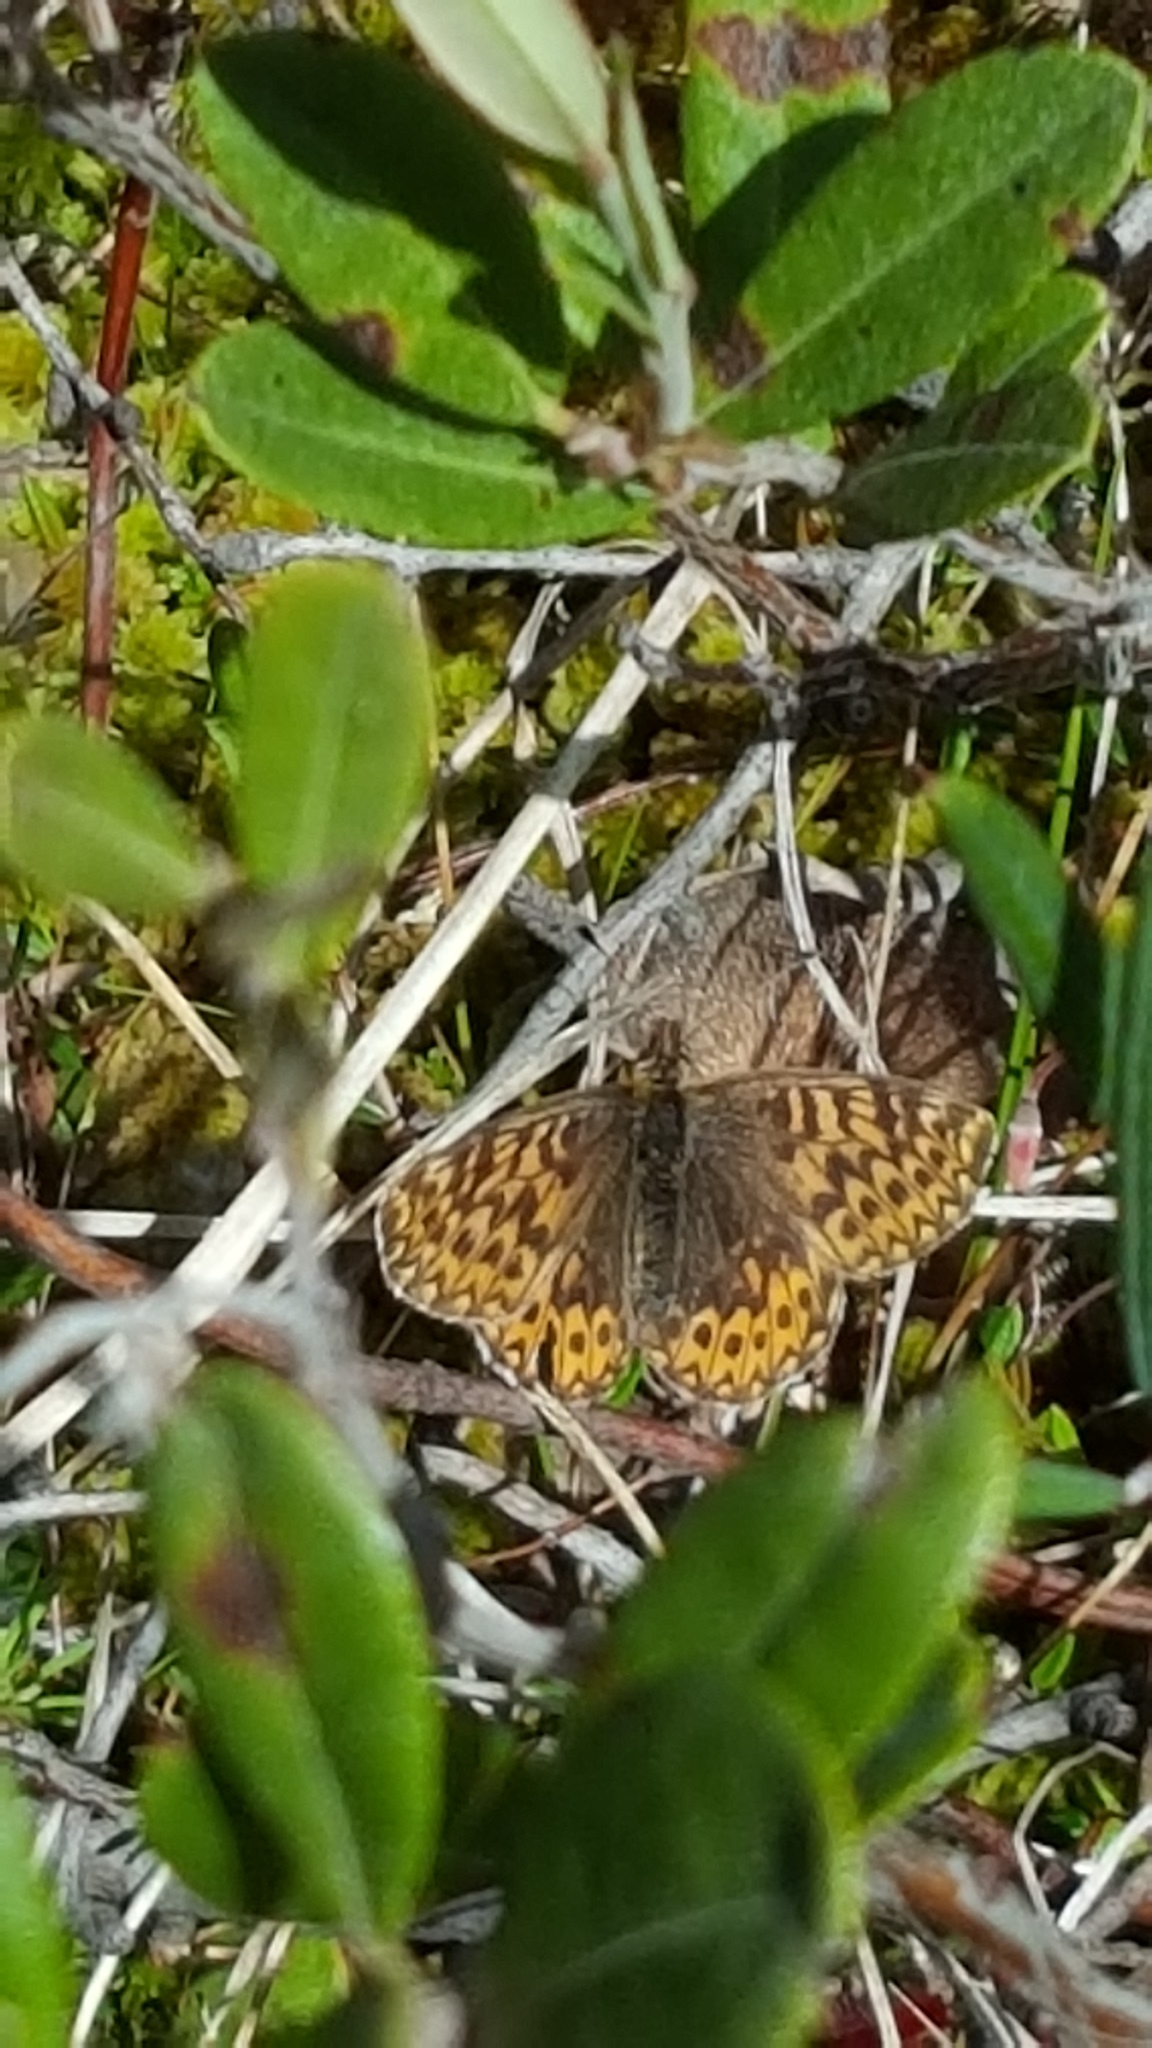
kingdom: Animalia
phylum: Arthropoda
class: Insecta
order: Lepidoptera
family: Nymphalidae
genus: Boloria
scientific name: Boloria freija
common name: Freija fritillary
